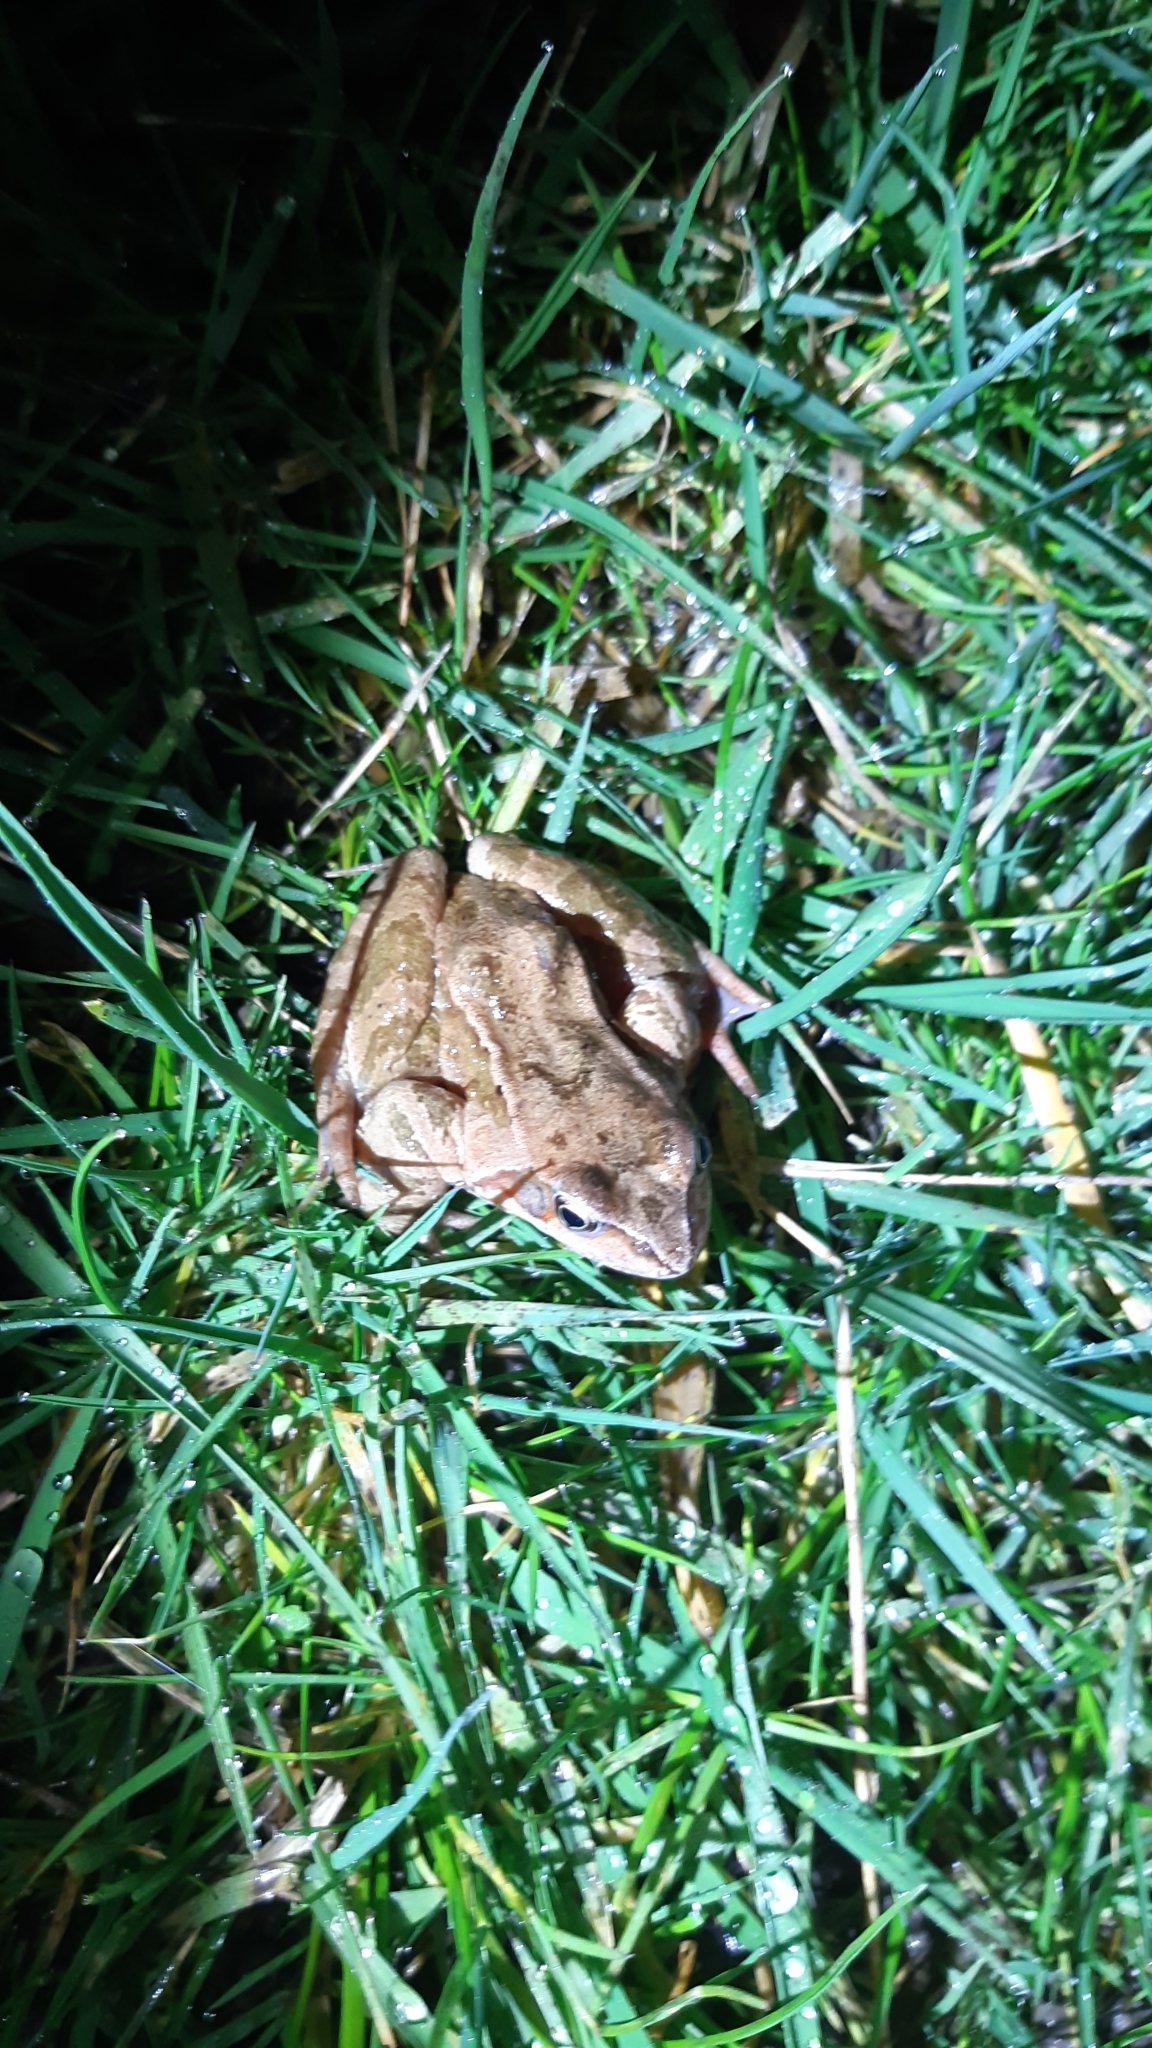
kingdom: Animalia
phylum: Chordata
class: Amphibia
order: Anura
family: Ranidae
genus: Rana
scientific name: Rana temporaria
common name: Common frog
